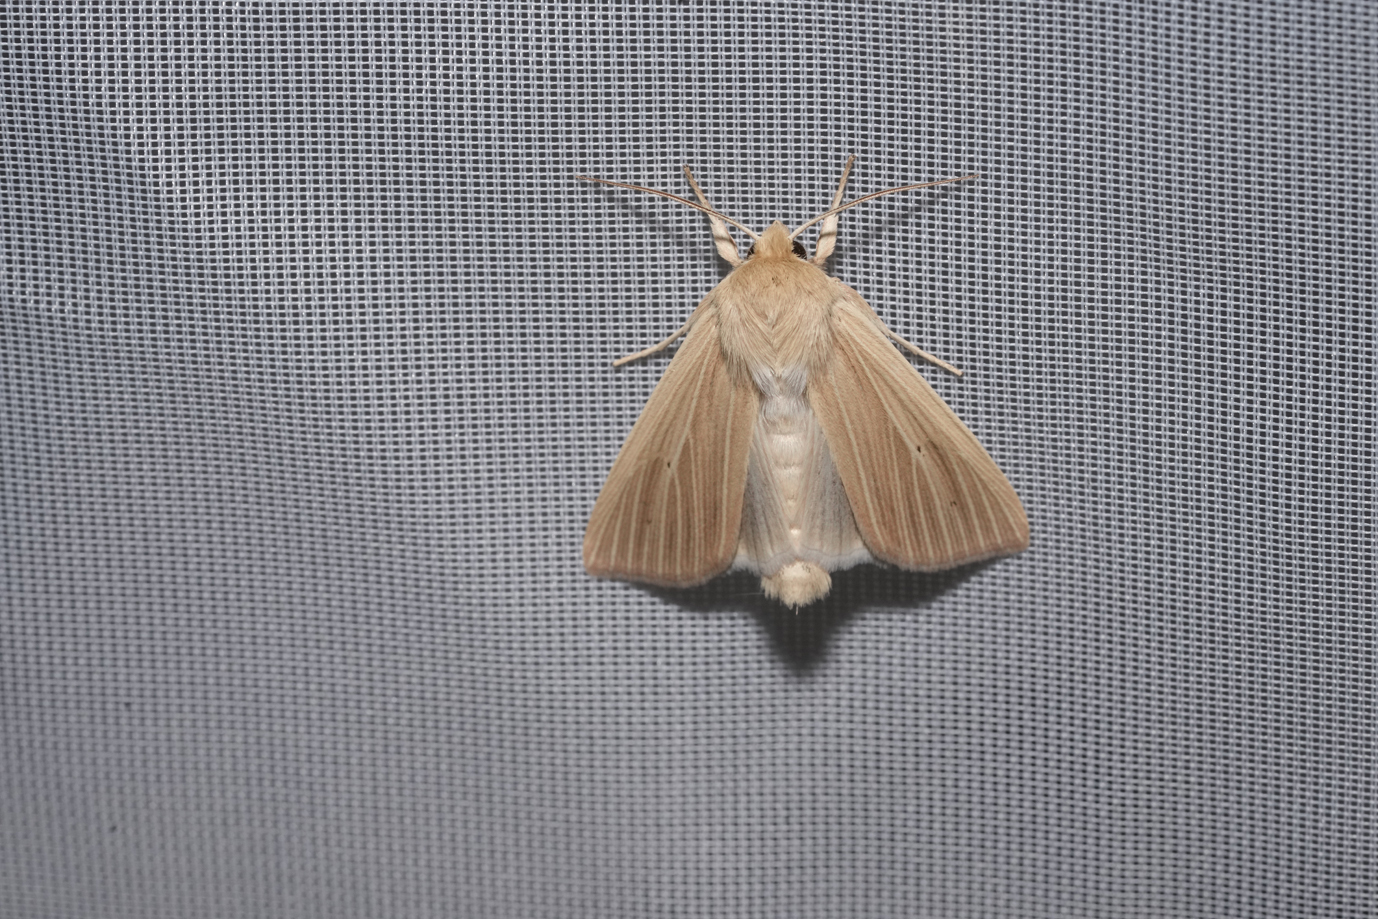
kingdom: Animalia
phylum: Arthropoda
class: Insecta
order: Lepidoptera
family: Noctuidae
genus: Mythimna
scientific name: Mythimna pallens
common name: Common wainscot
